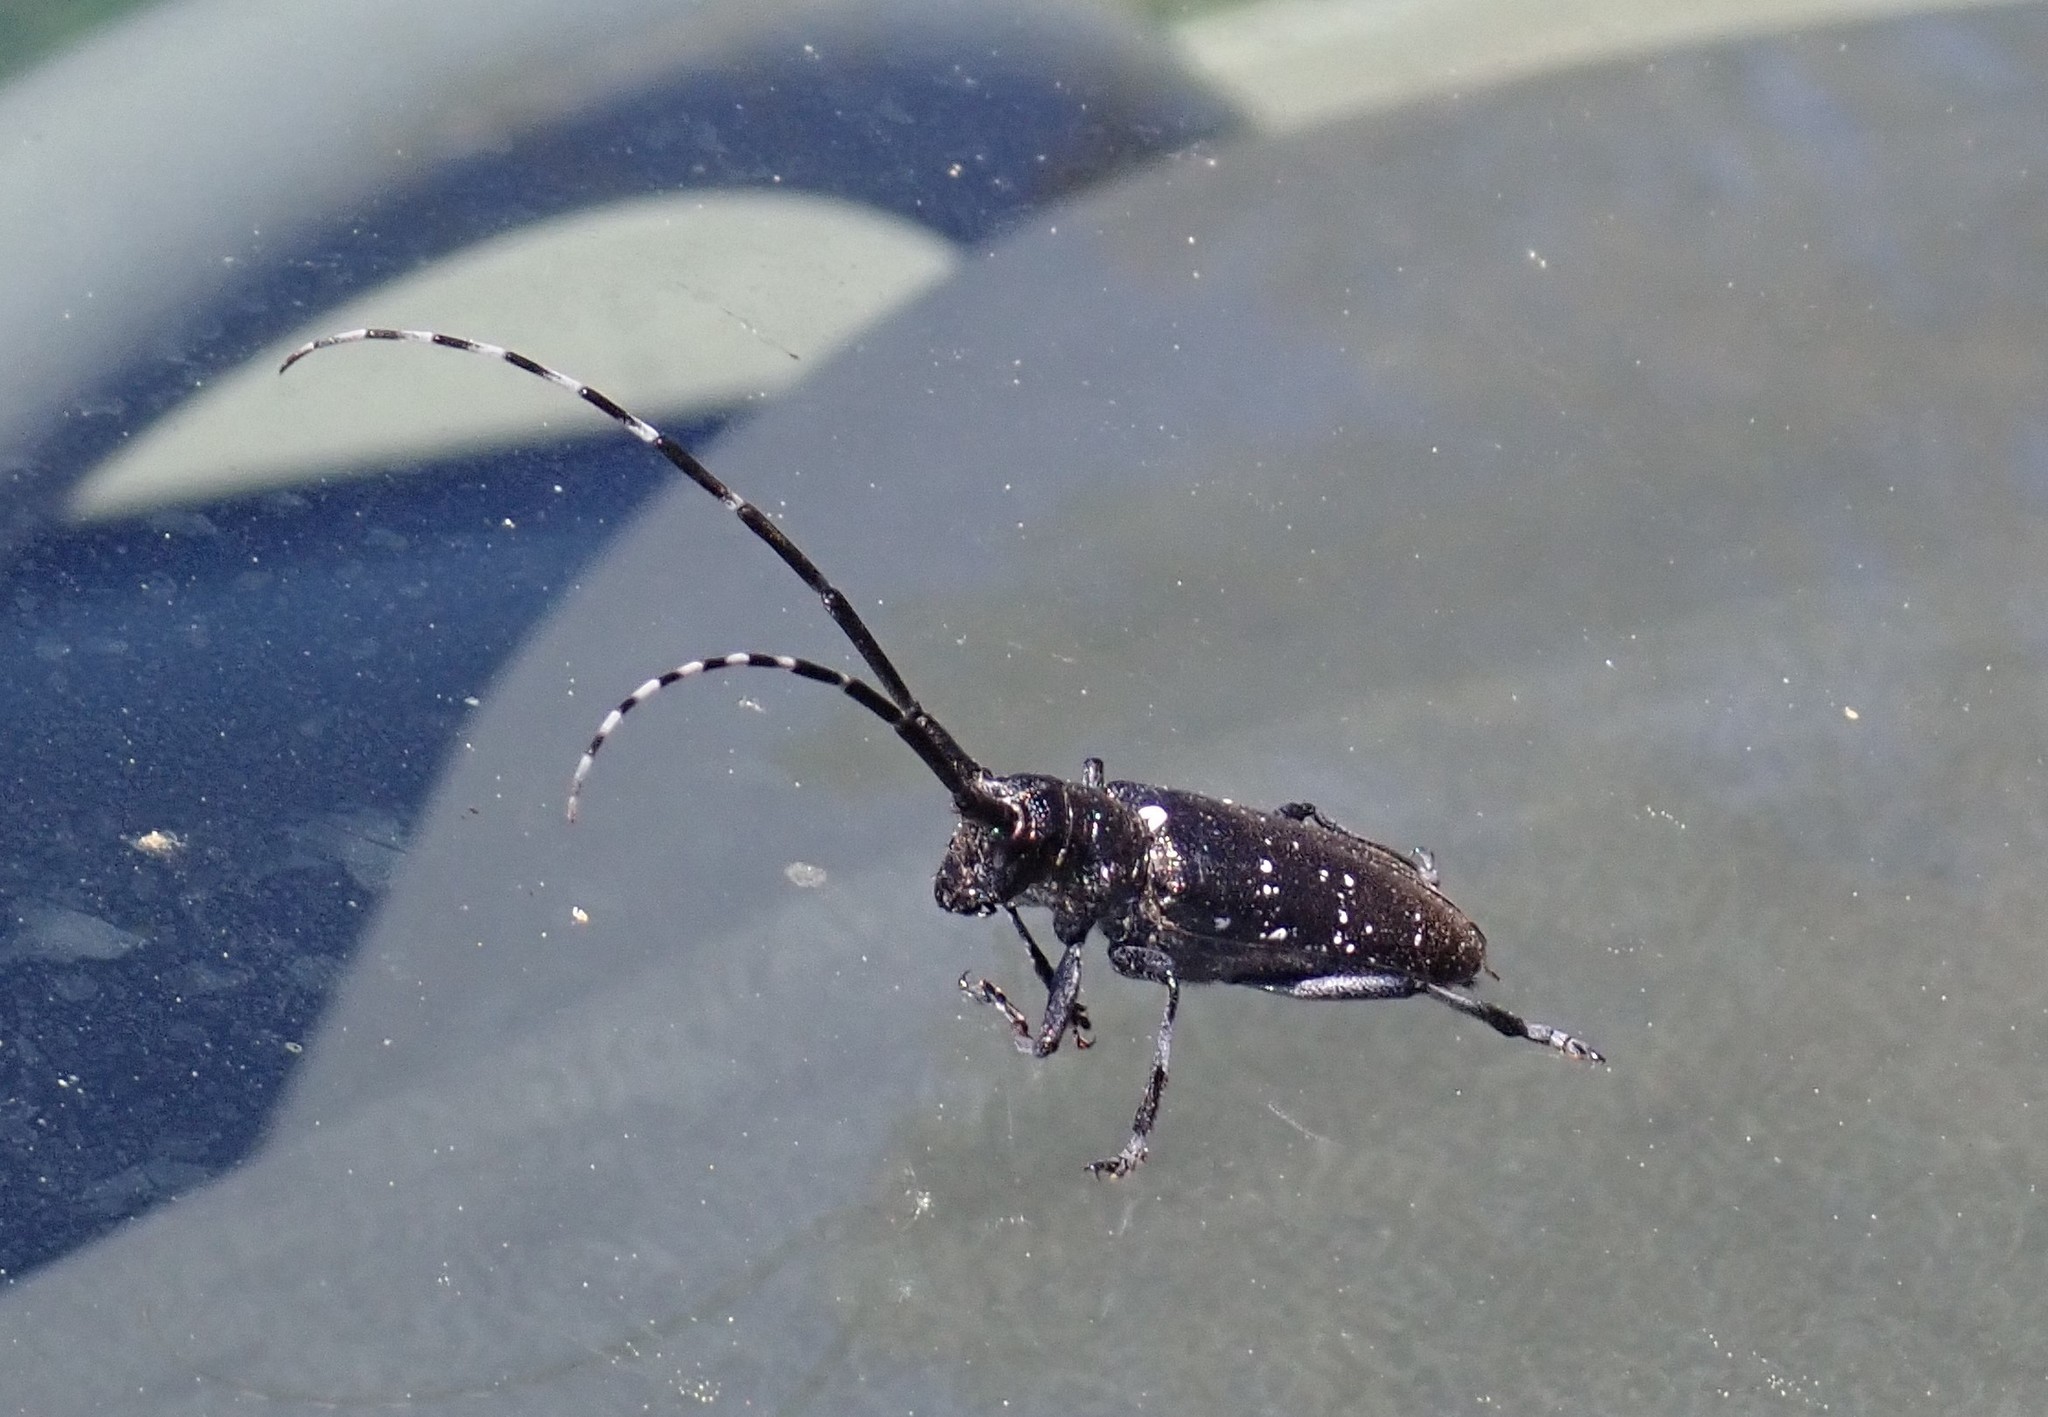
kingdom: Animalia
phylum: Arthropoda
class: Insecta
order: Coleoptera
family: Cerambycidae
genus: Monochamus
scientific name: Monochamus scutellatus
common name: White-spotted sawyer beetle
